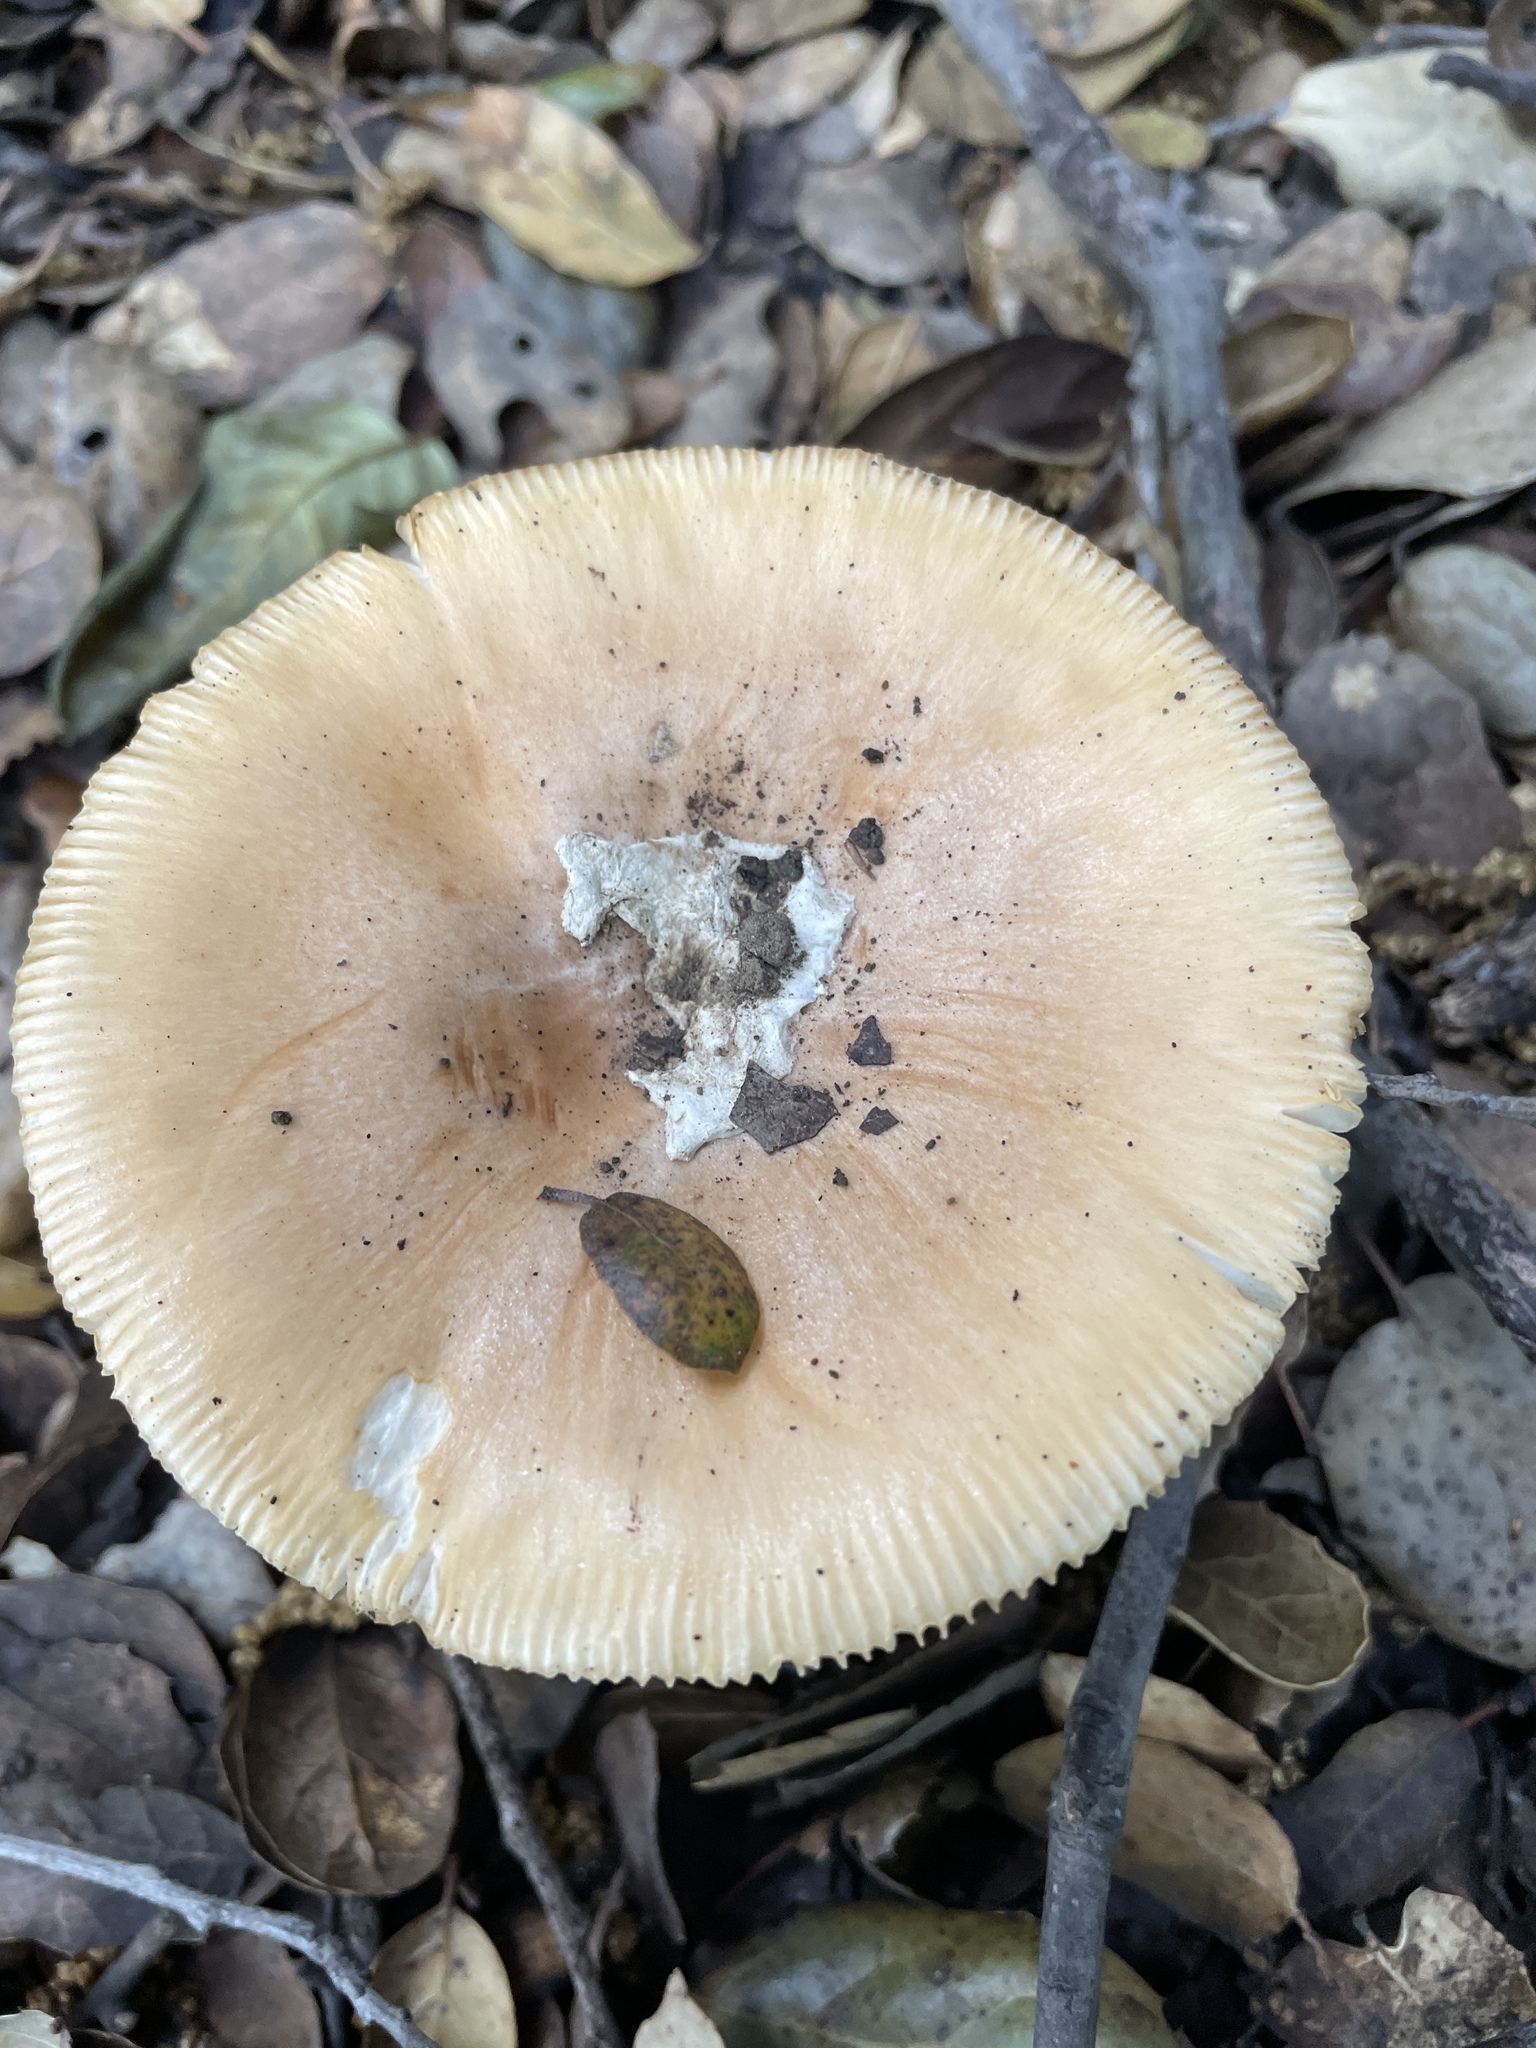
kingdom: Fungi
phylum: Basidiomycota
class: Agaricomycetes
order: Agaricales
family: Amanitaceae
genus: Amanita
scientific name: Amanita velosa
